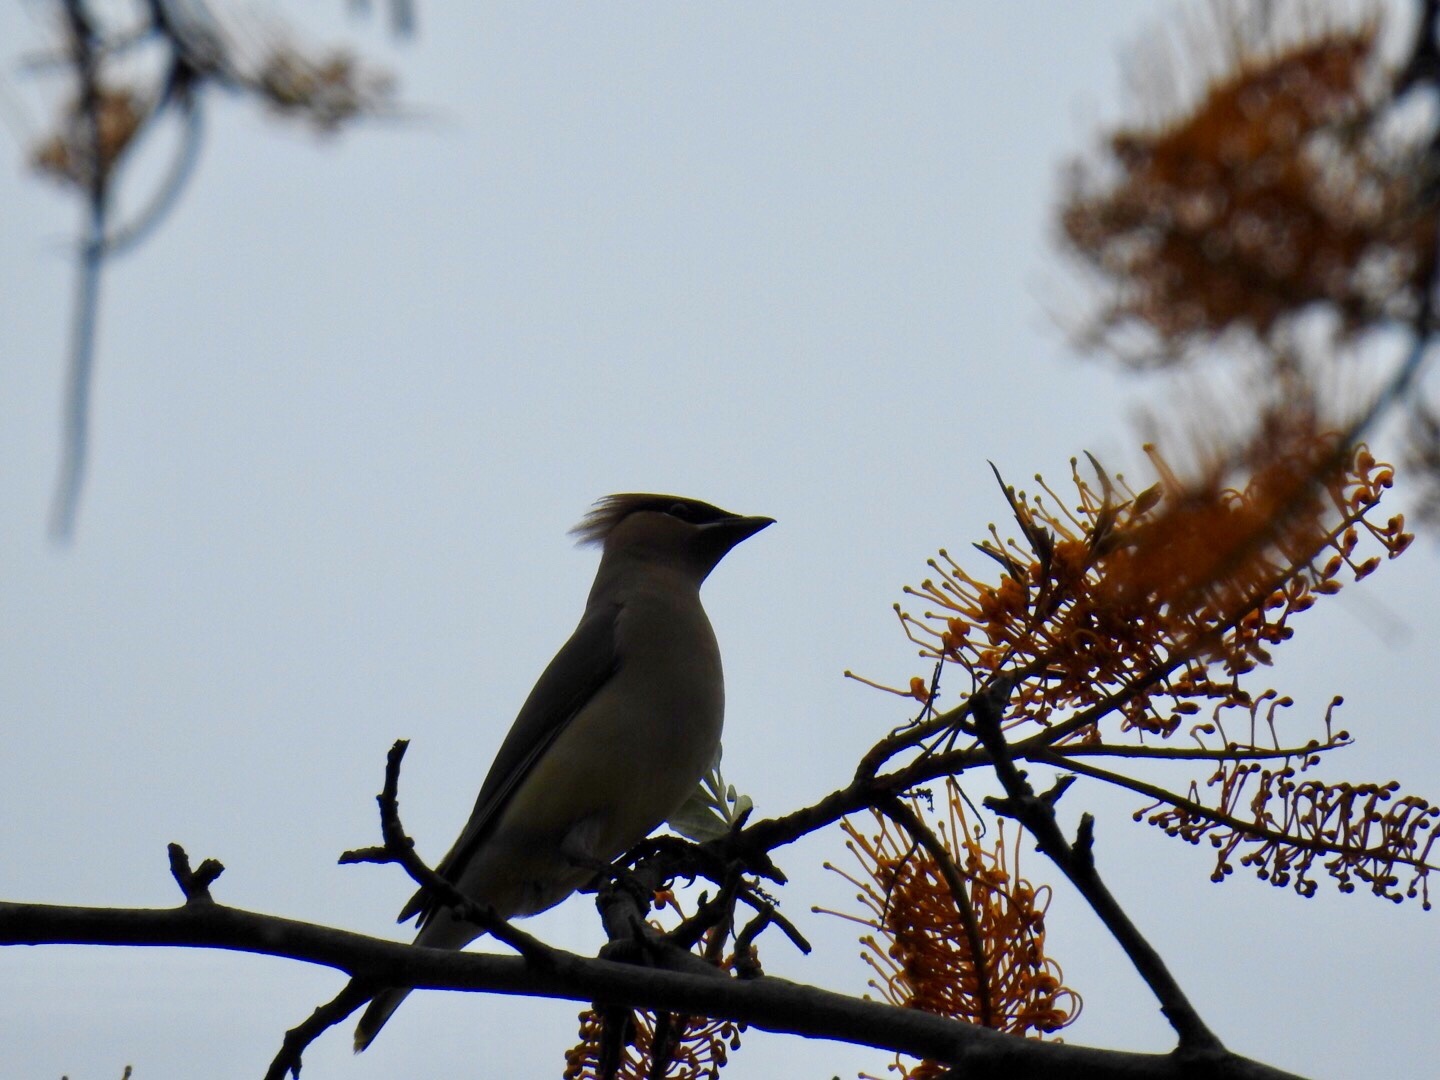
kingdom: Animalia
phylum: Chordata
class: Aves
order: Passeriformes
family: Bombycillidae
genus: Bombycilla
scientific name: Bombycilla cedrorum
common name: Cedar waxwing
